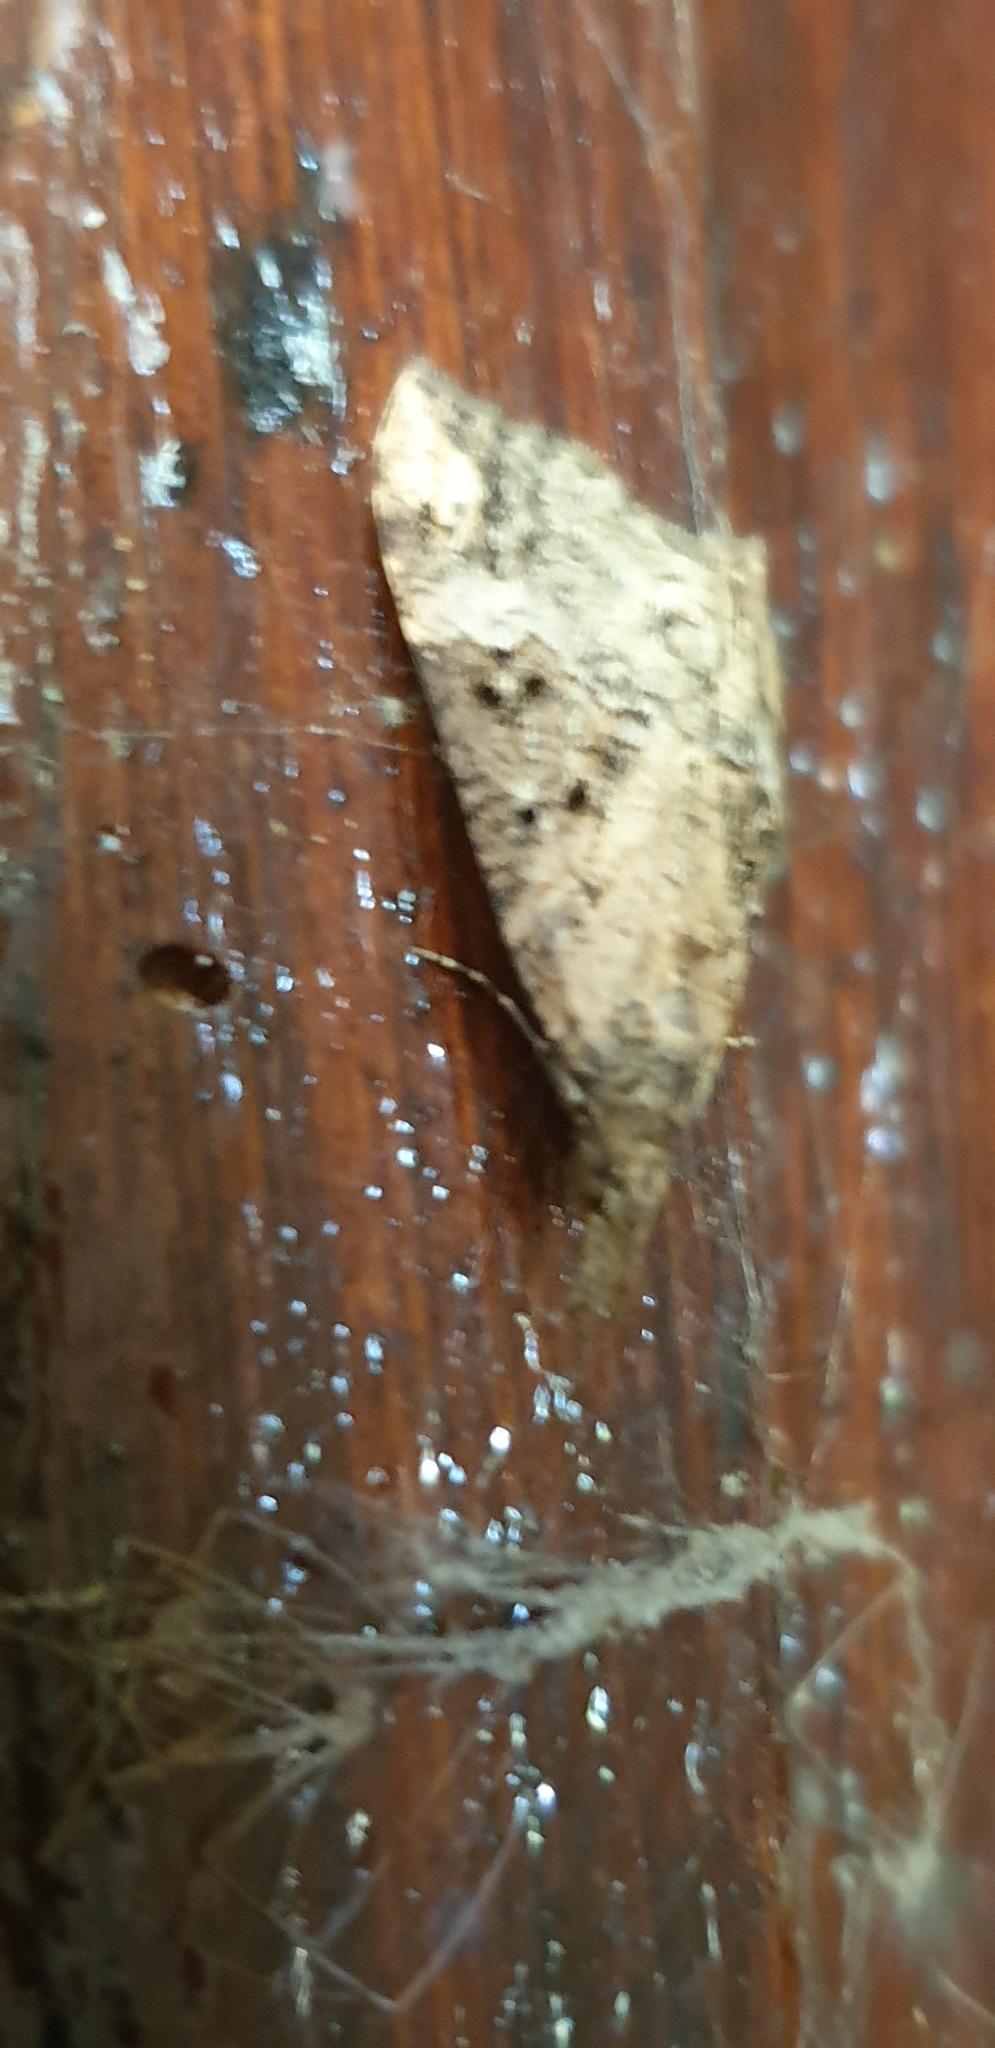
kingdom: Animalia
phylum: Arthropoda
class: Insecta
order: Lepidoptera
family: Erebidae
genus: Hypena
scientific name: Hypena obsitalis
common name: Bloxworth snout
